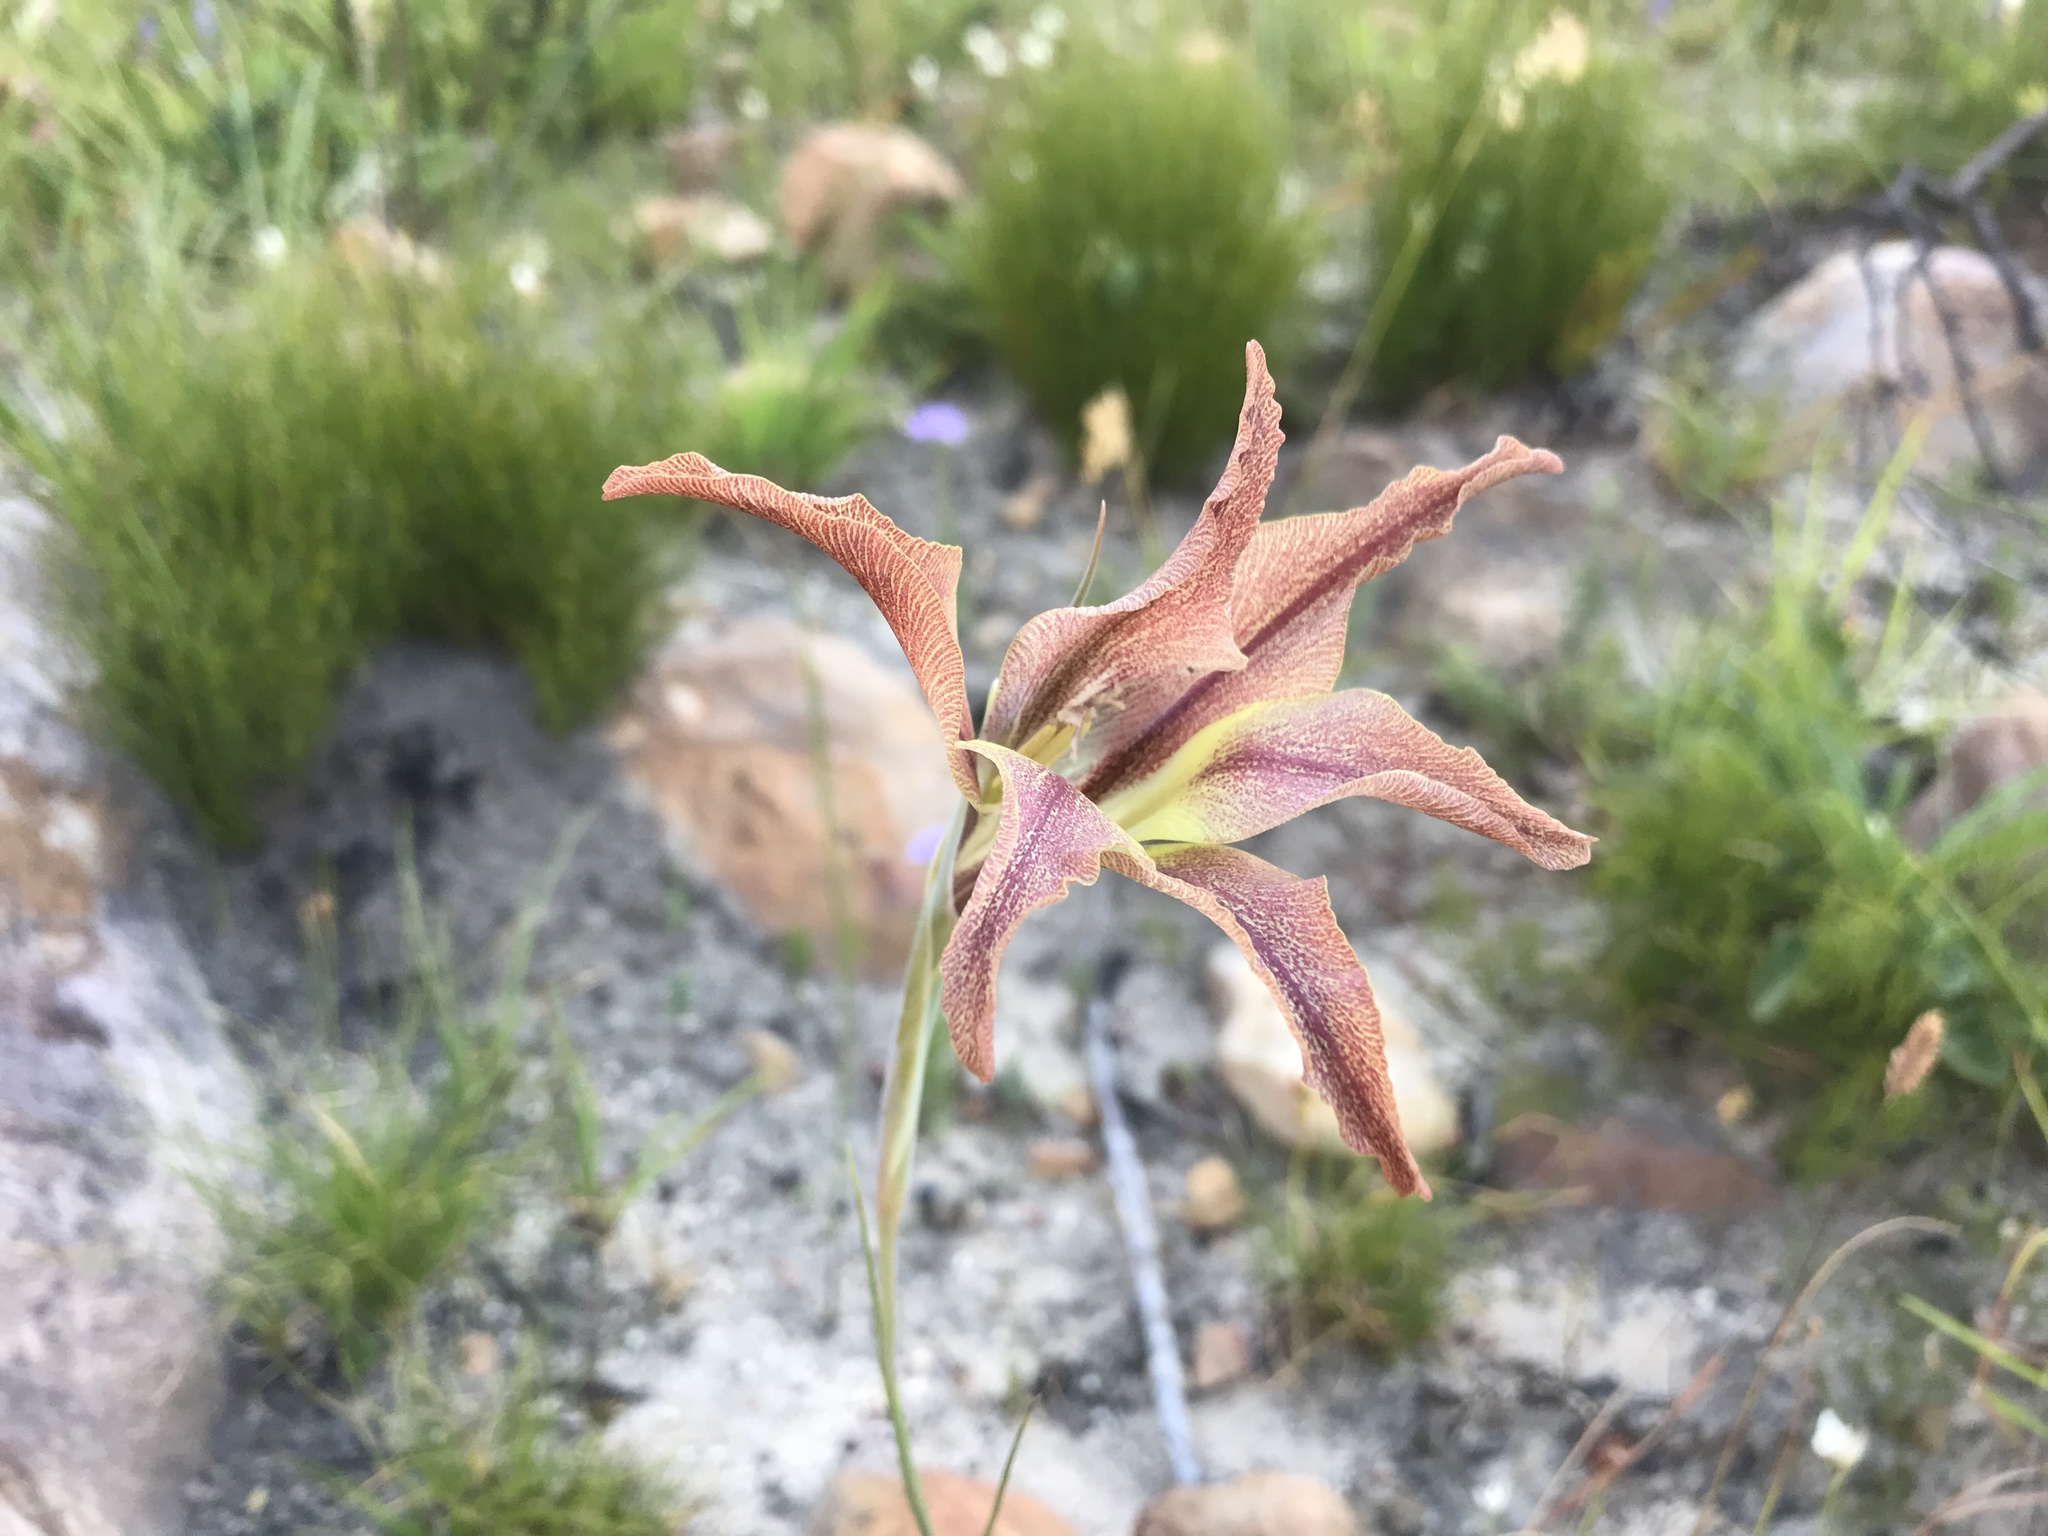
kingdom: Plantae
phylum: Tracheophyta
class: Liliopsida
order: Asparagales
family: Iridaceae
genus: Gladiolus
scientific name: Gladiolus liliaceus
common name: Large brown afrikaner
